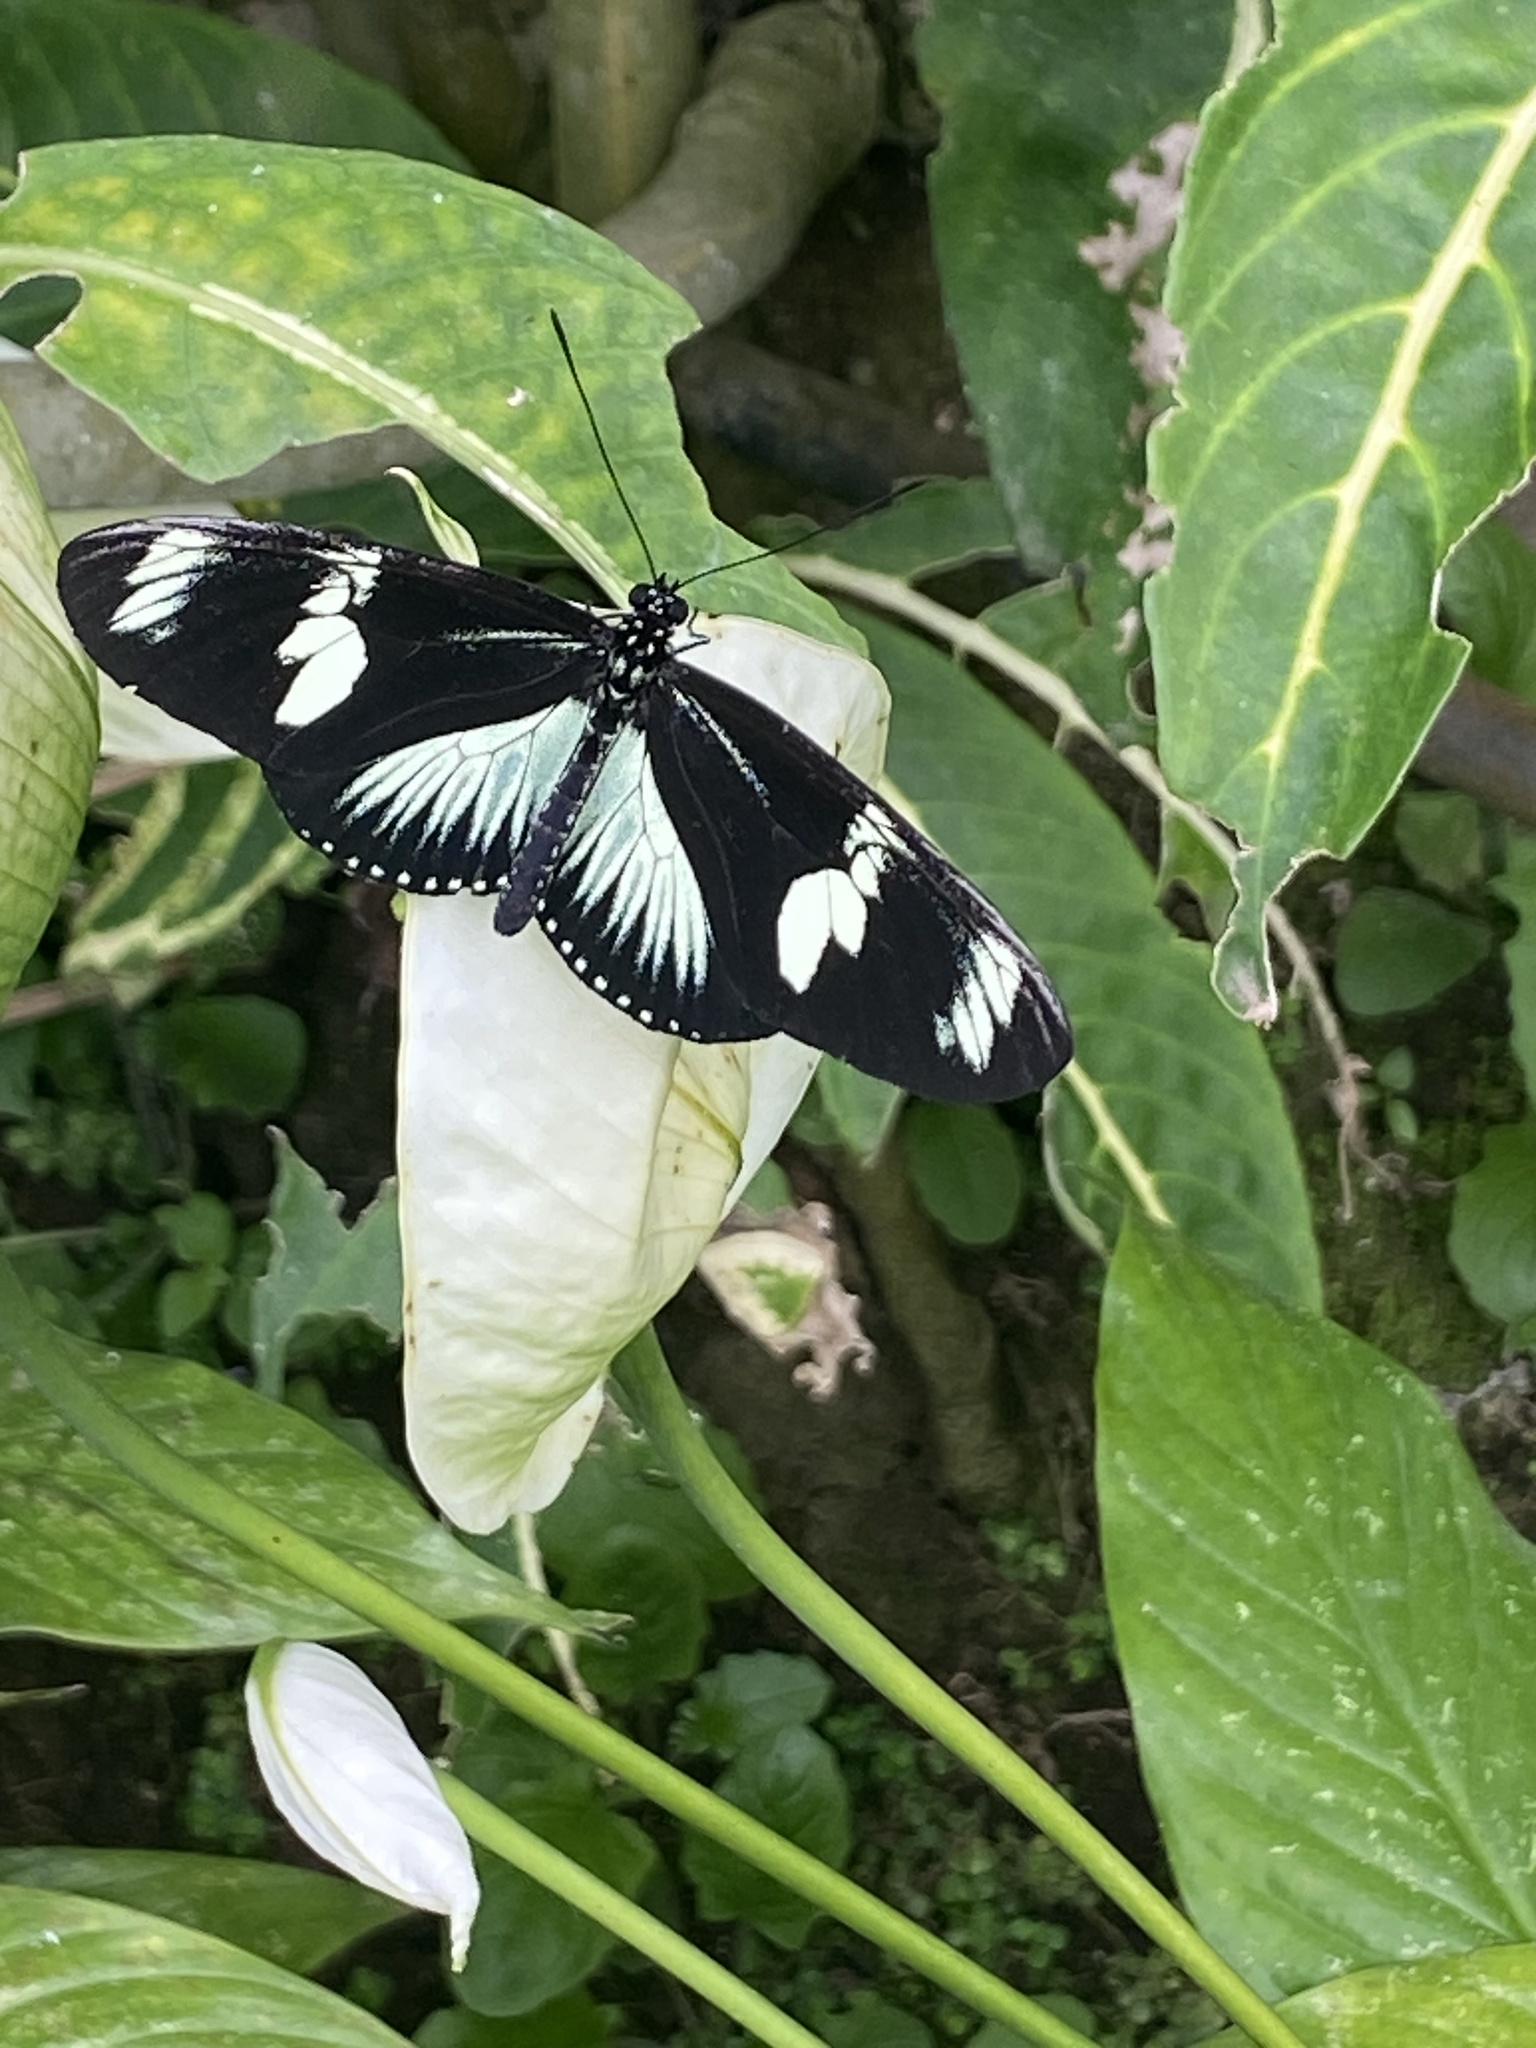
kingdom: Animalia
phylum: Arthropoda
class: Insecta
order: Lepidoptera
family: Nymphalidae
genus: Heliconius
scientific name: Heliconius doris
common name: Doris longwing
